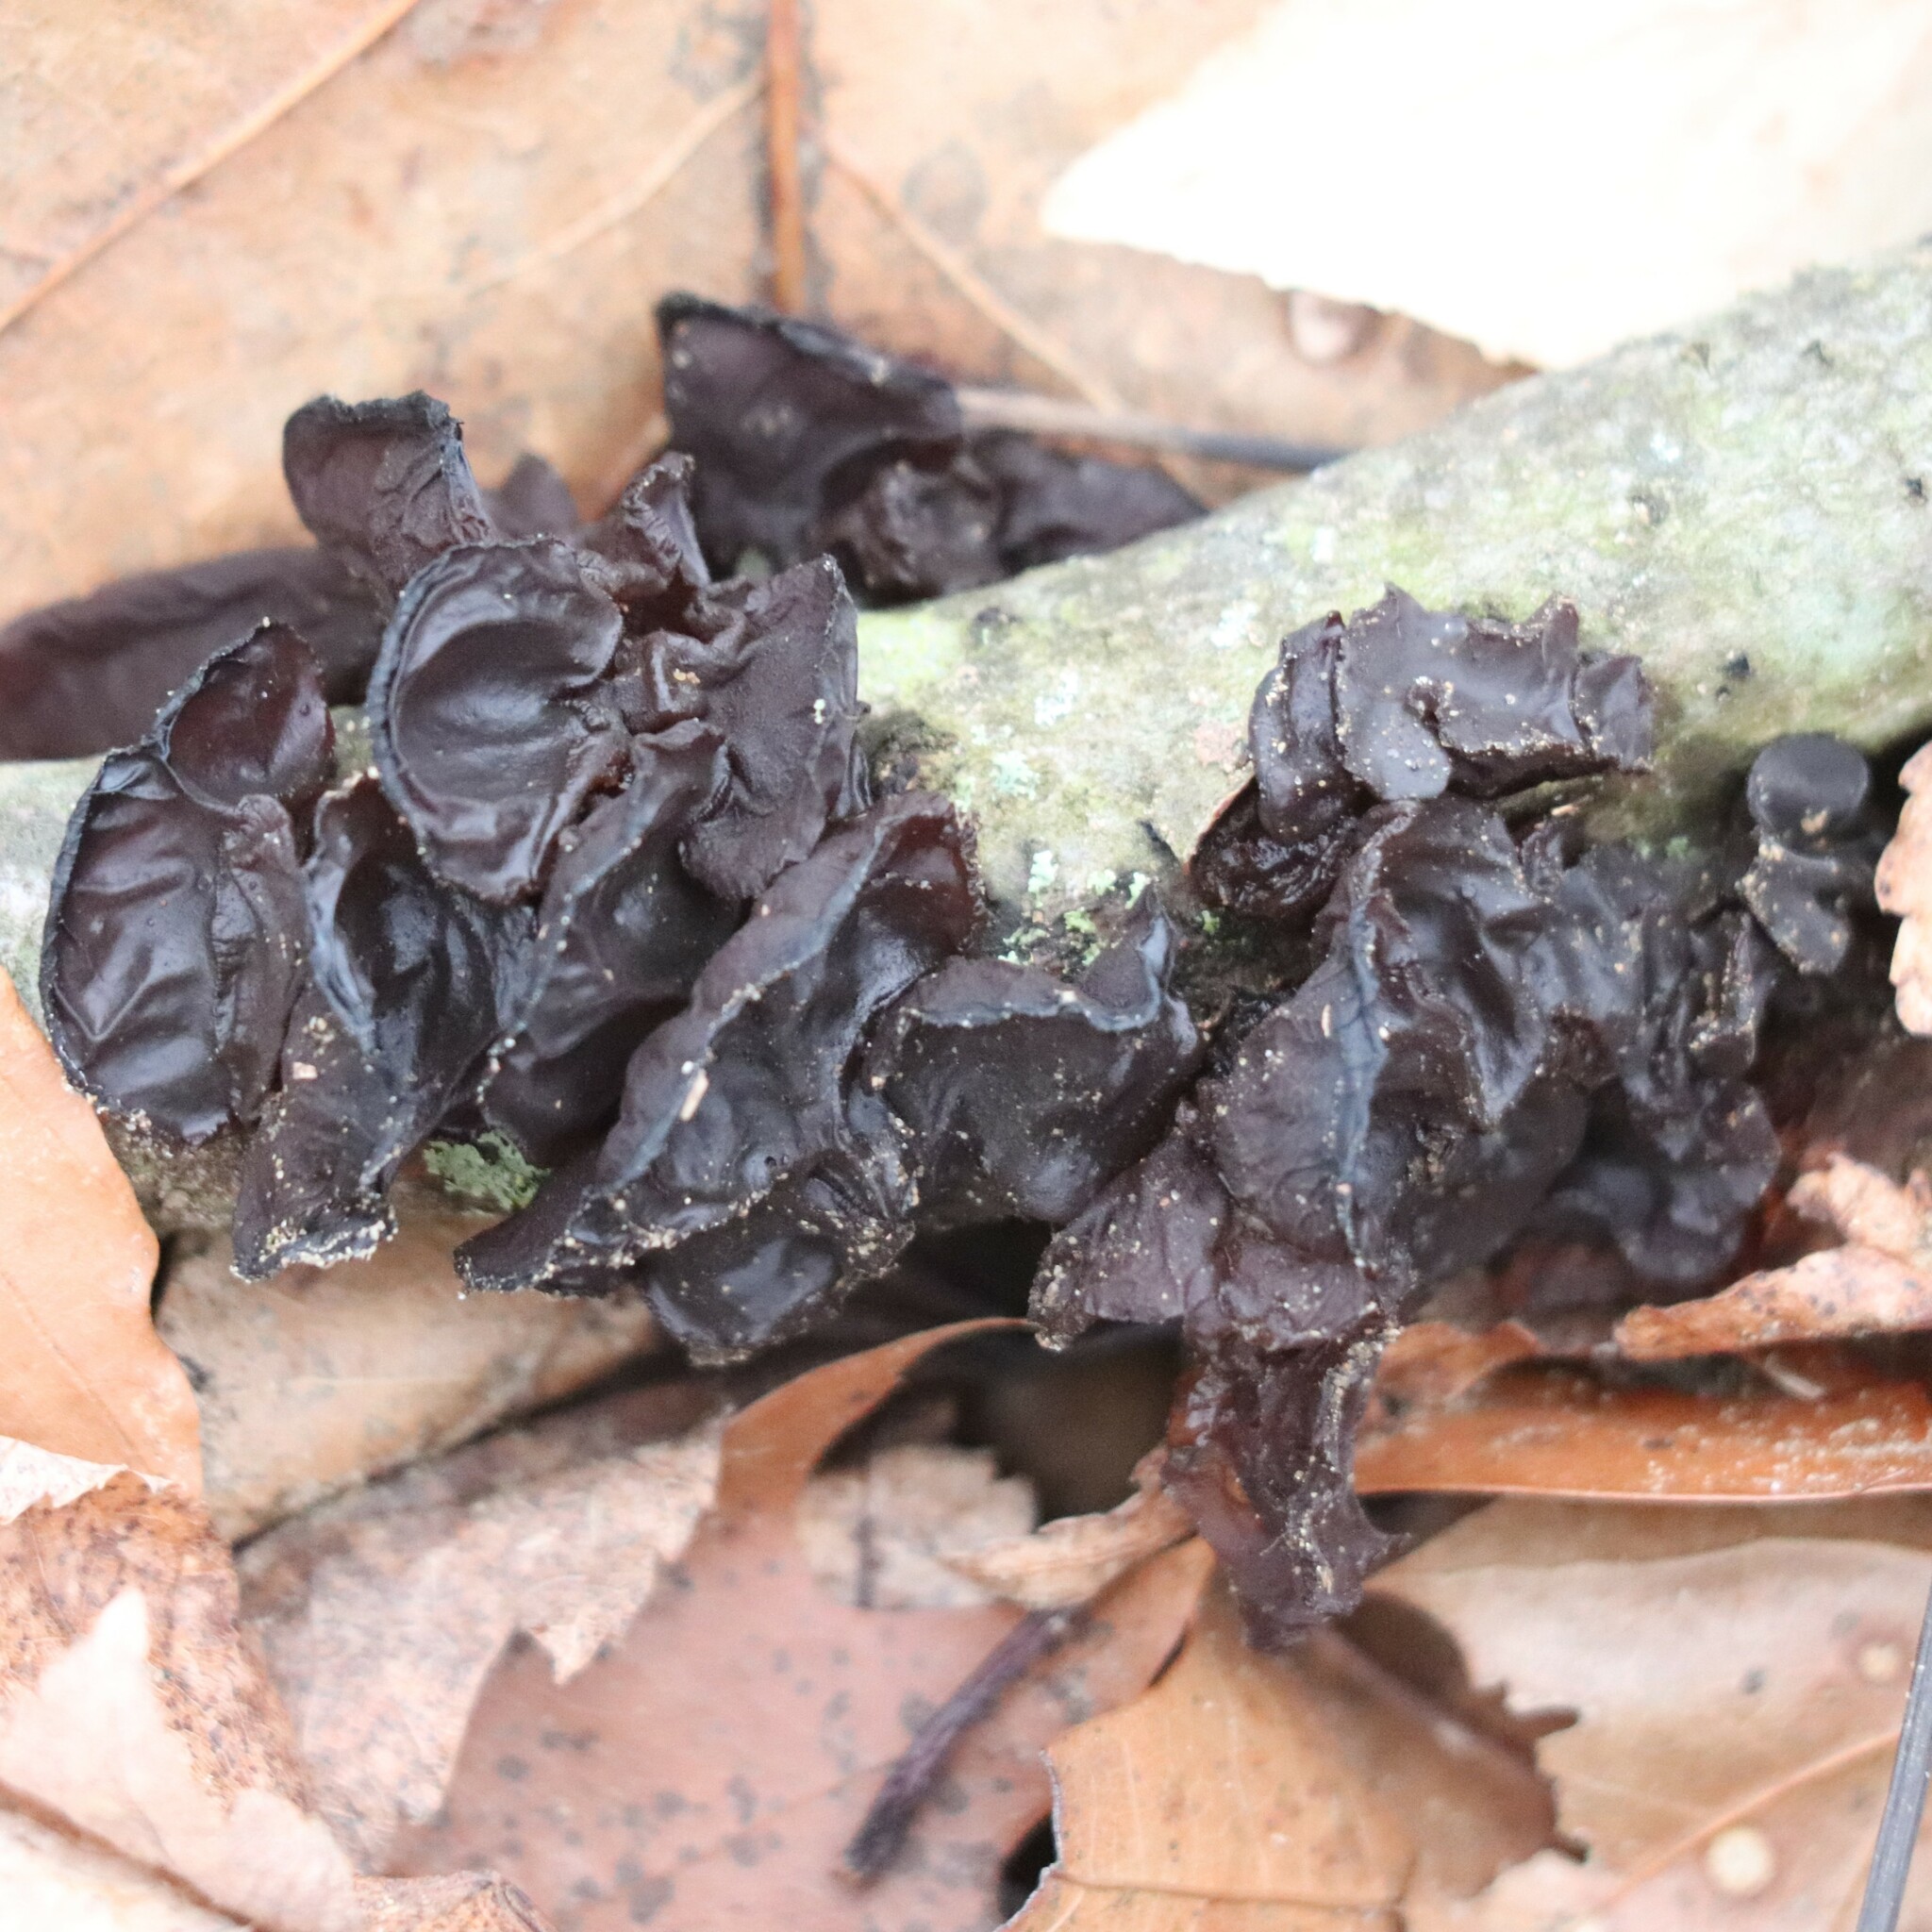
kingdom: Fungi
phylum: Basidiomycota
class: Agaricomycetes
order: Auriculariales
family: Auriculariaceae
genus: Exidia
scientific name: Exidia
